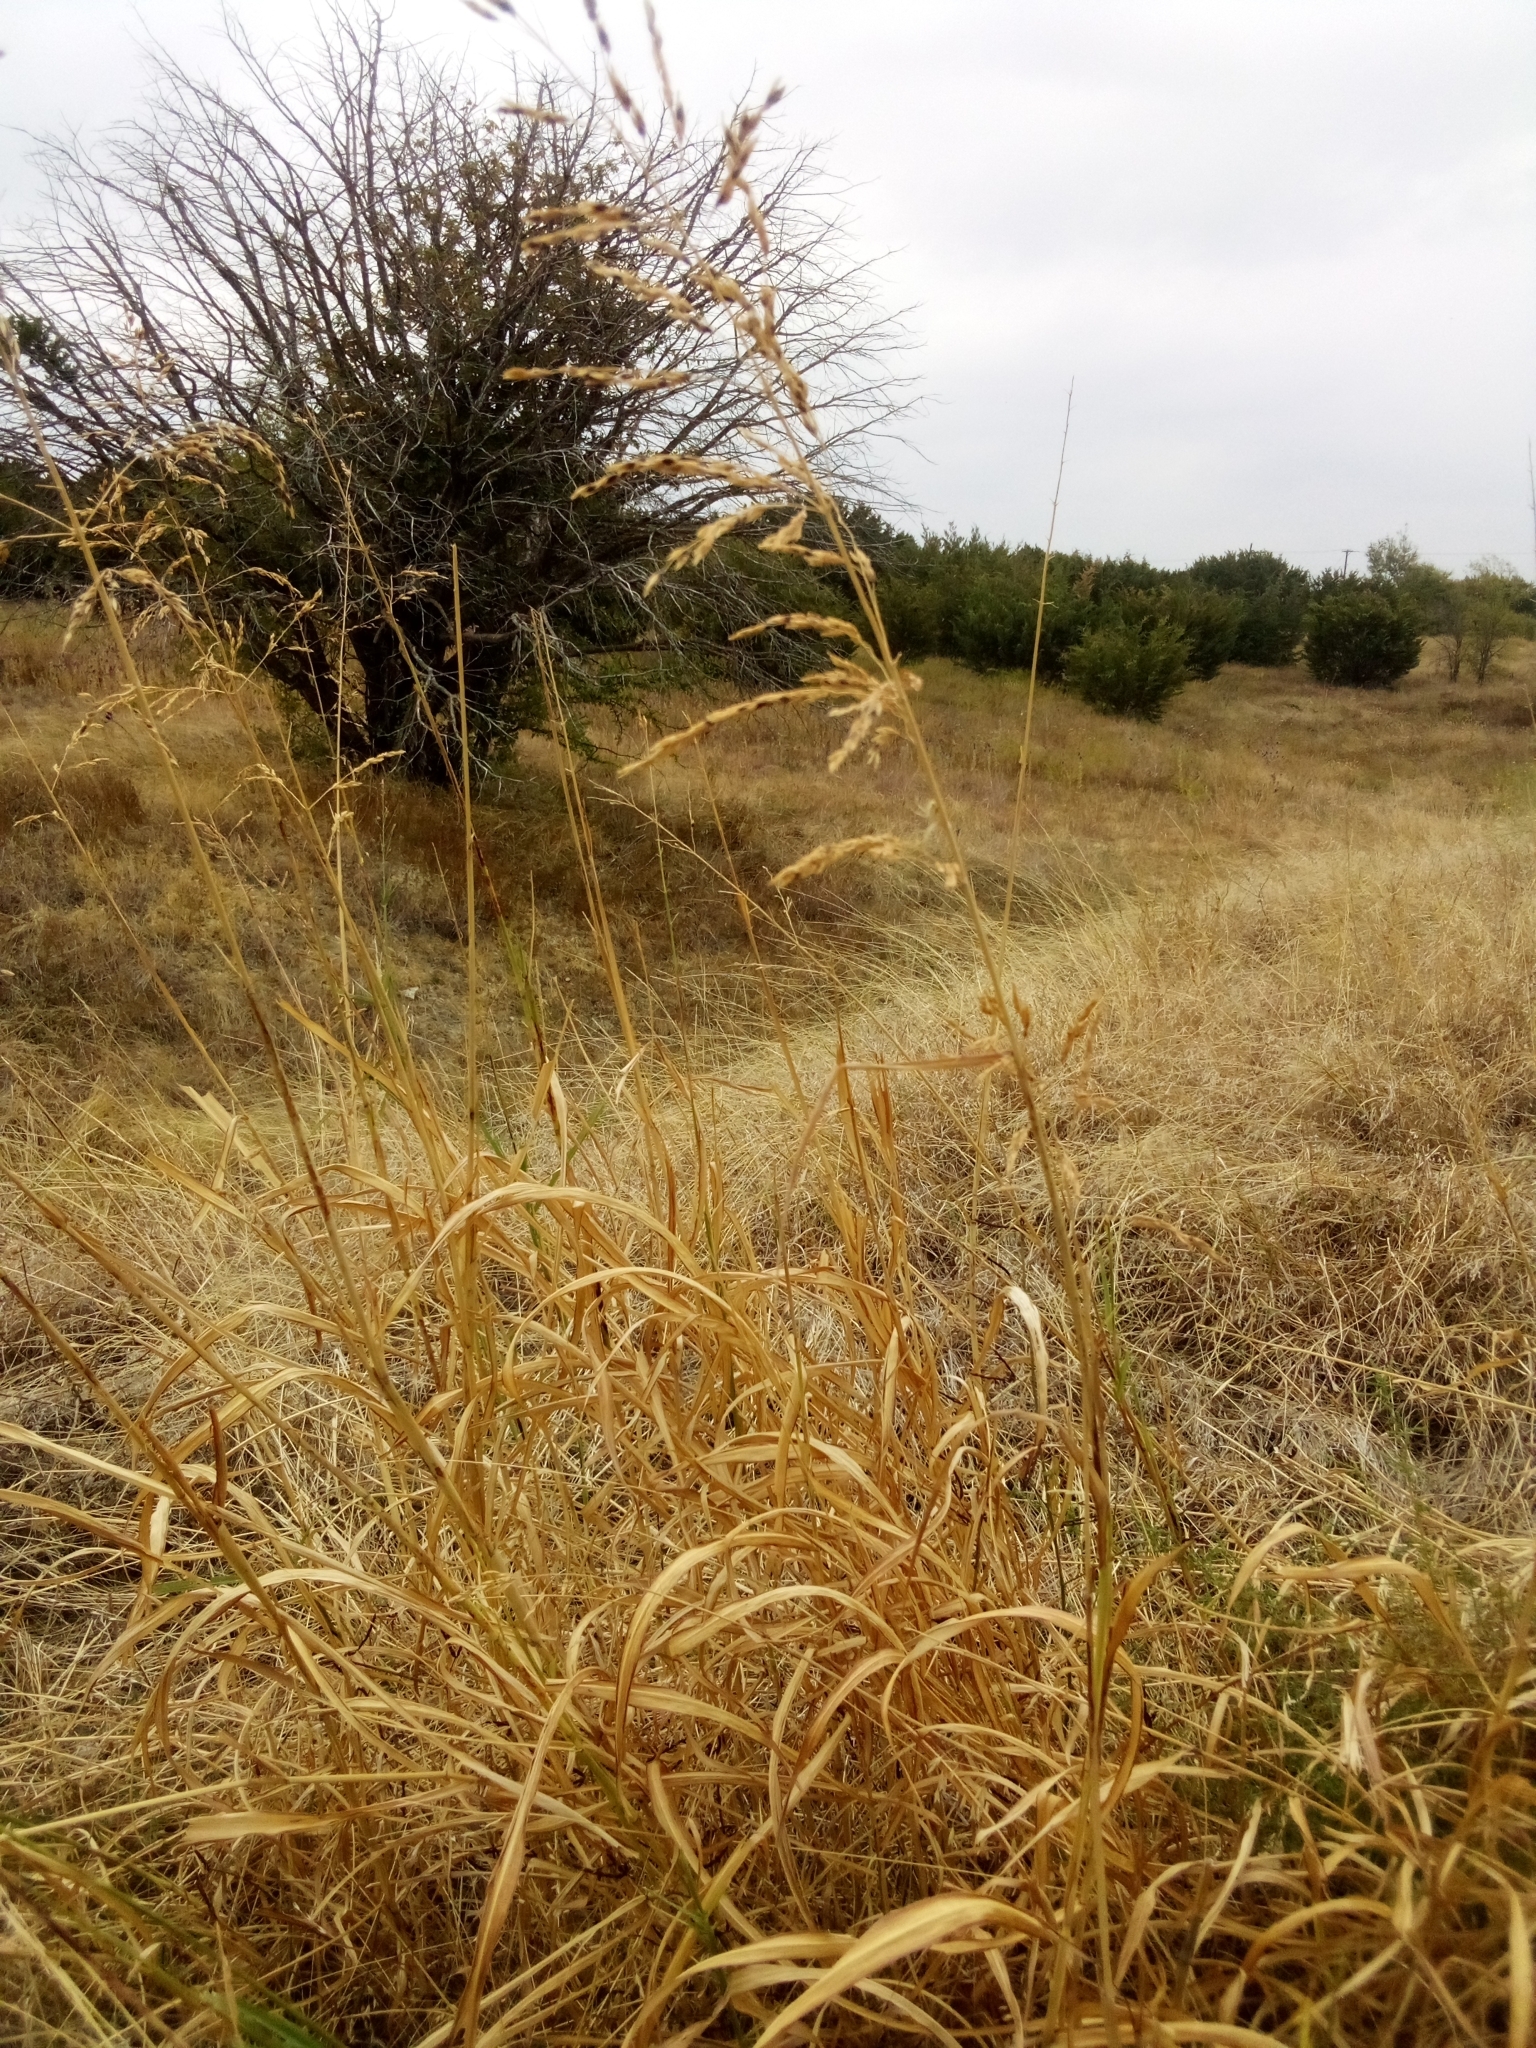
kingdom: Plantae
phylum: Tracheophyta
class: Liliopsida
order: Poales
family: Poaceae
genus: Sorghum
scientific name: Sorghum halepense
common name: Johnson-grass
